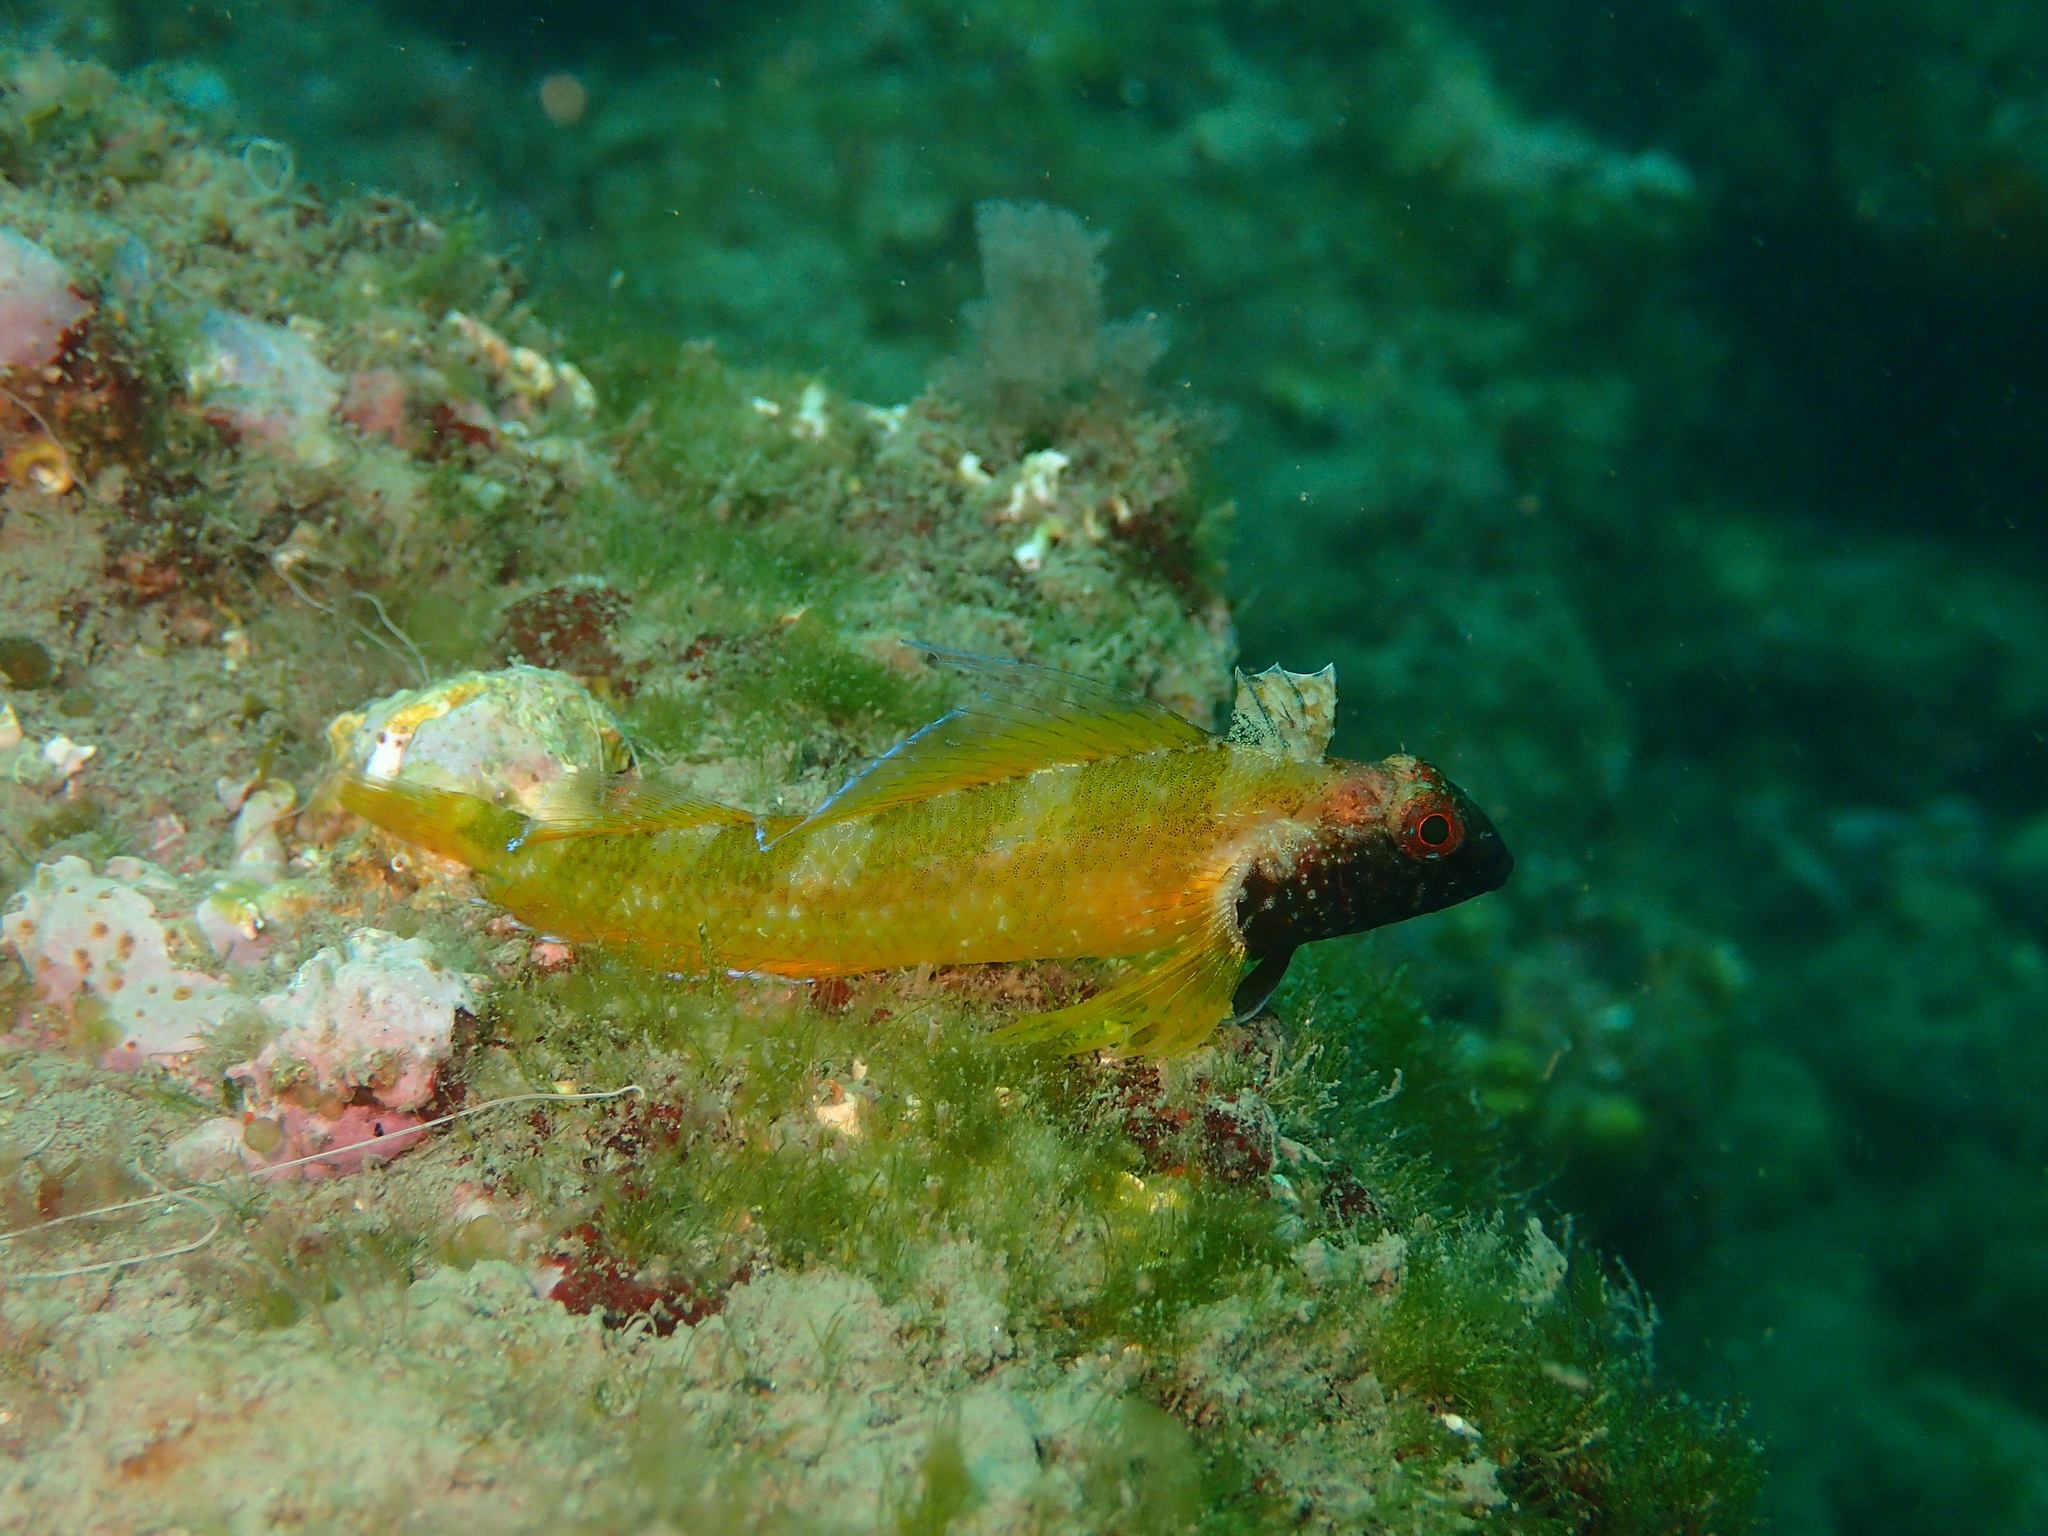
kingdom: Animalia
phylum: Chordata
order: Perciformes
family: Tripterygiidae
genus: Tripterygion
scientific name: Tripterygion delaisi
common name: Black-face blenny
